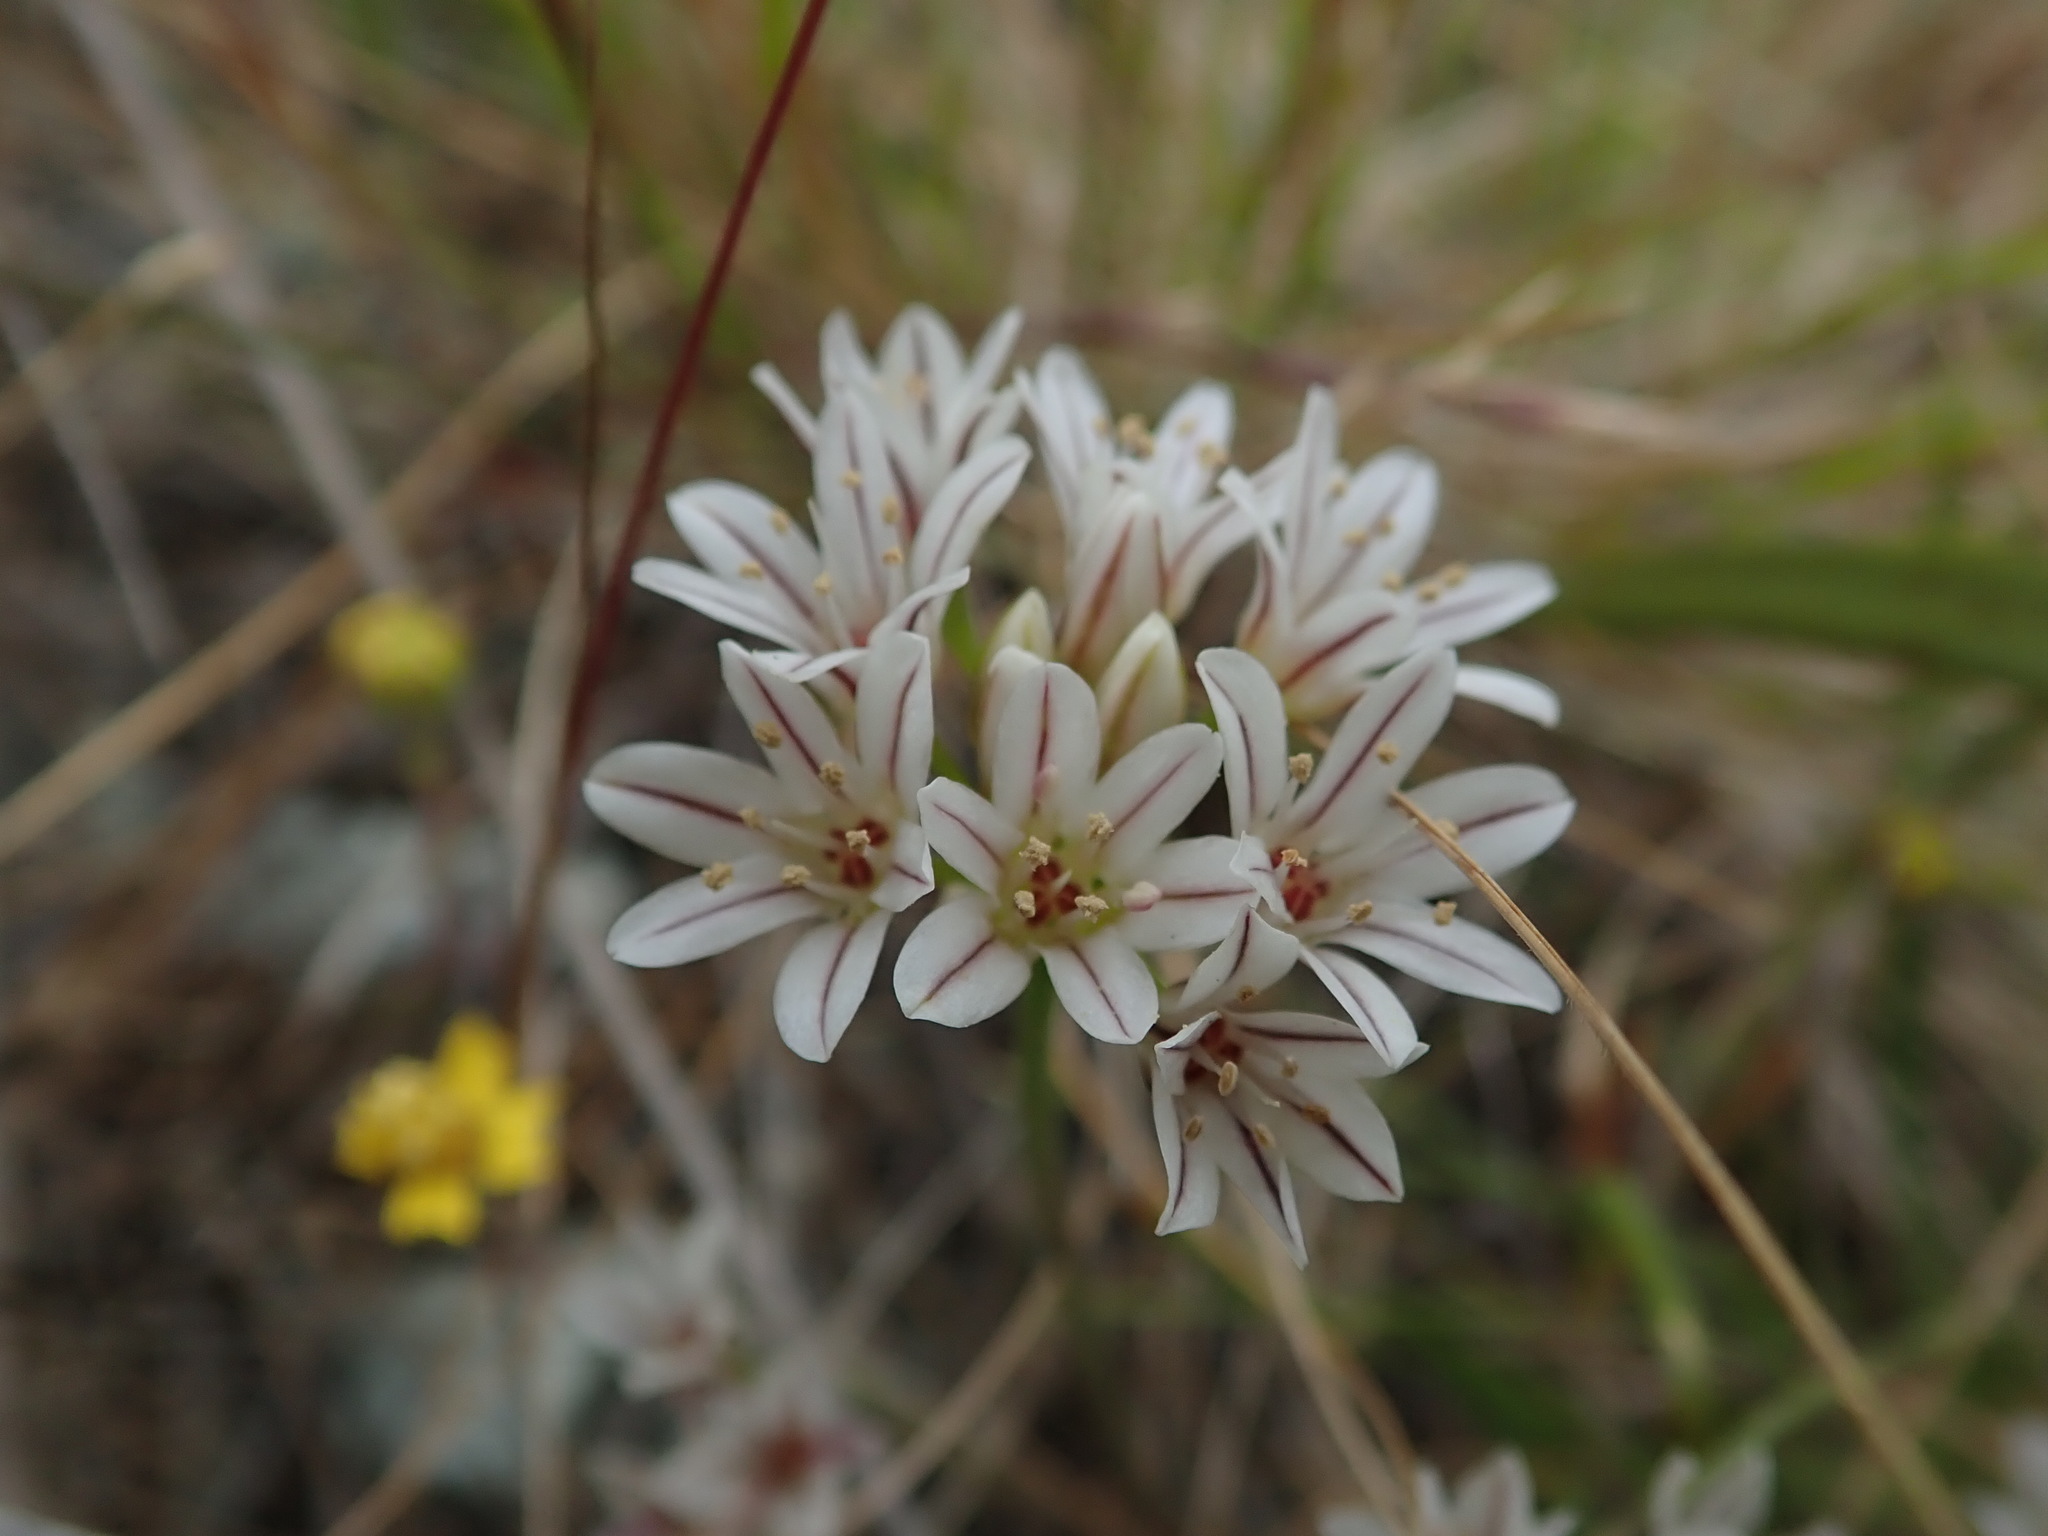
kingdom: Plantae
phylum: Tracheophyta
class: Liliopsida
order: Asparagales
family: Amaryllidaceae
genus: Allium
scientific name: Allium lacunosum
